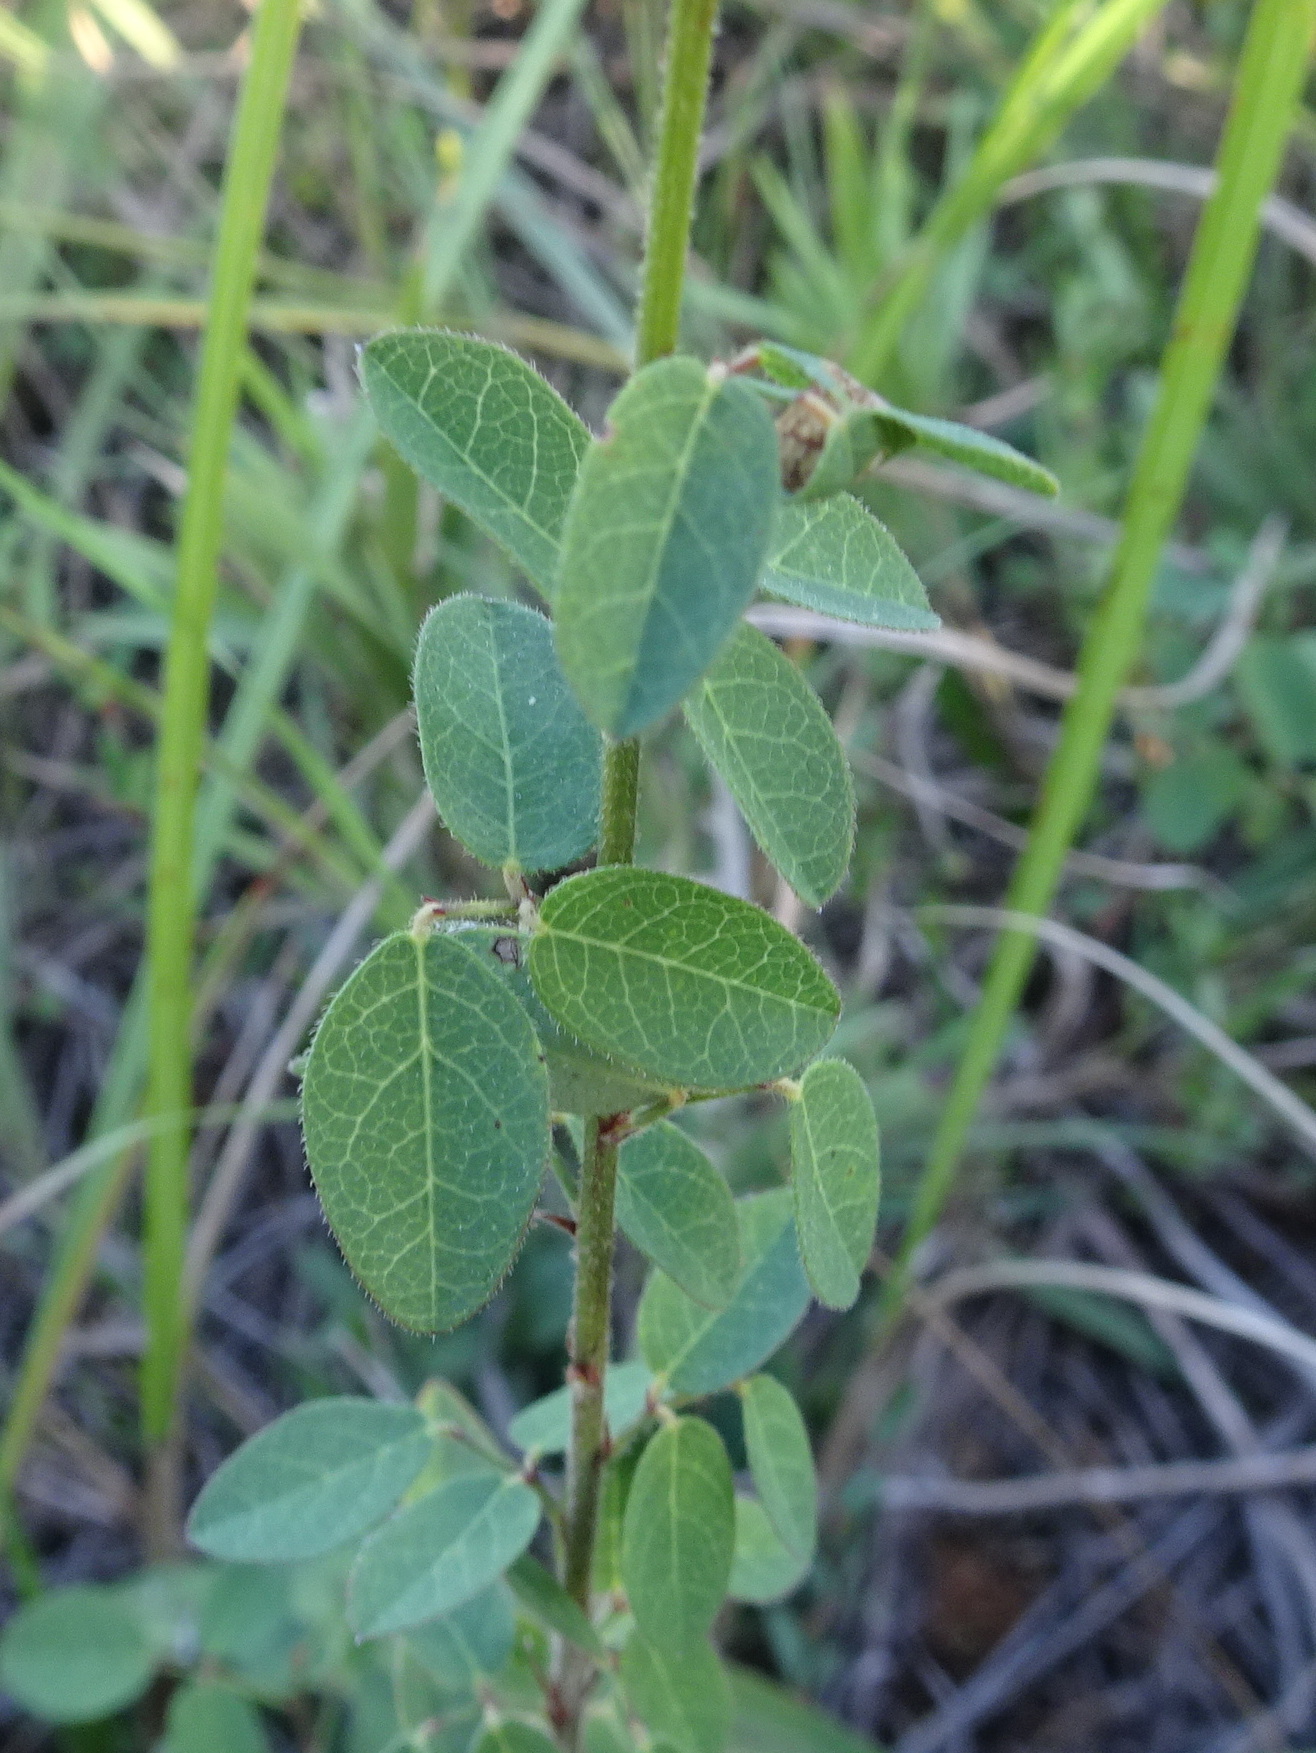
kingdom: Plantae
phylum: Tracheophyta
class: Magnoliopsida
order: Fabales
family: Fabaceae
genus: Desmodium
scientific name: Desmodium ciliare
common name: Hairy small-leaf ticktrefoil
